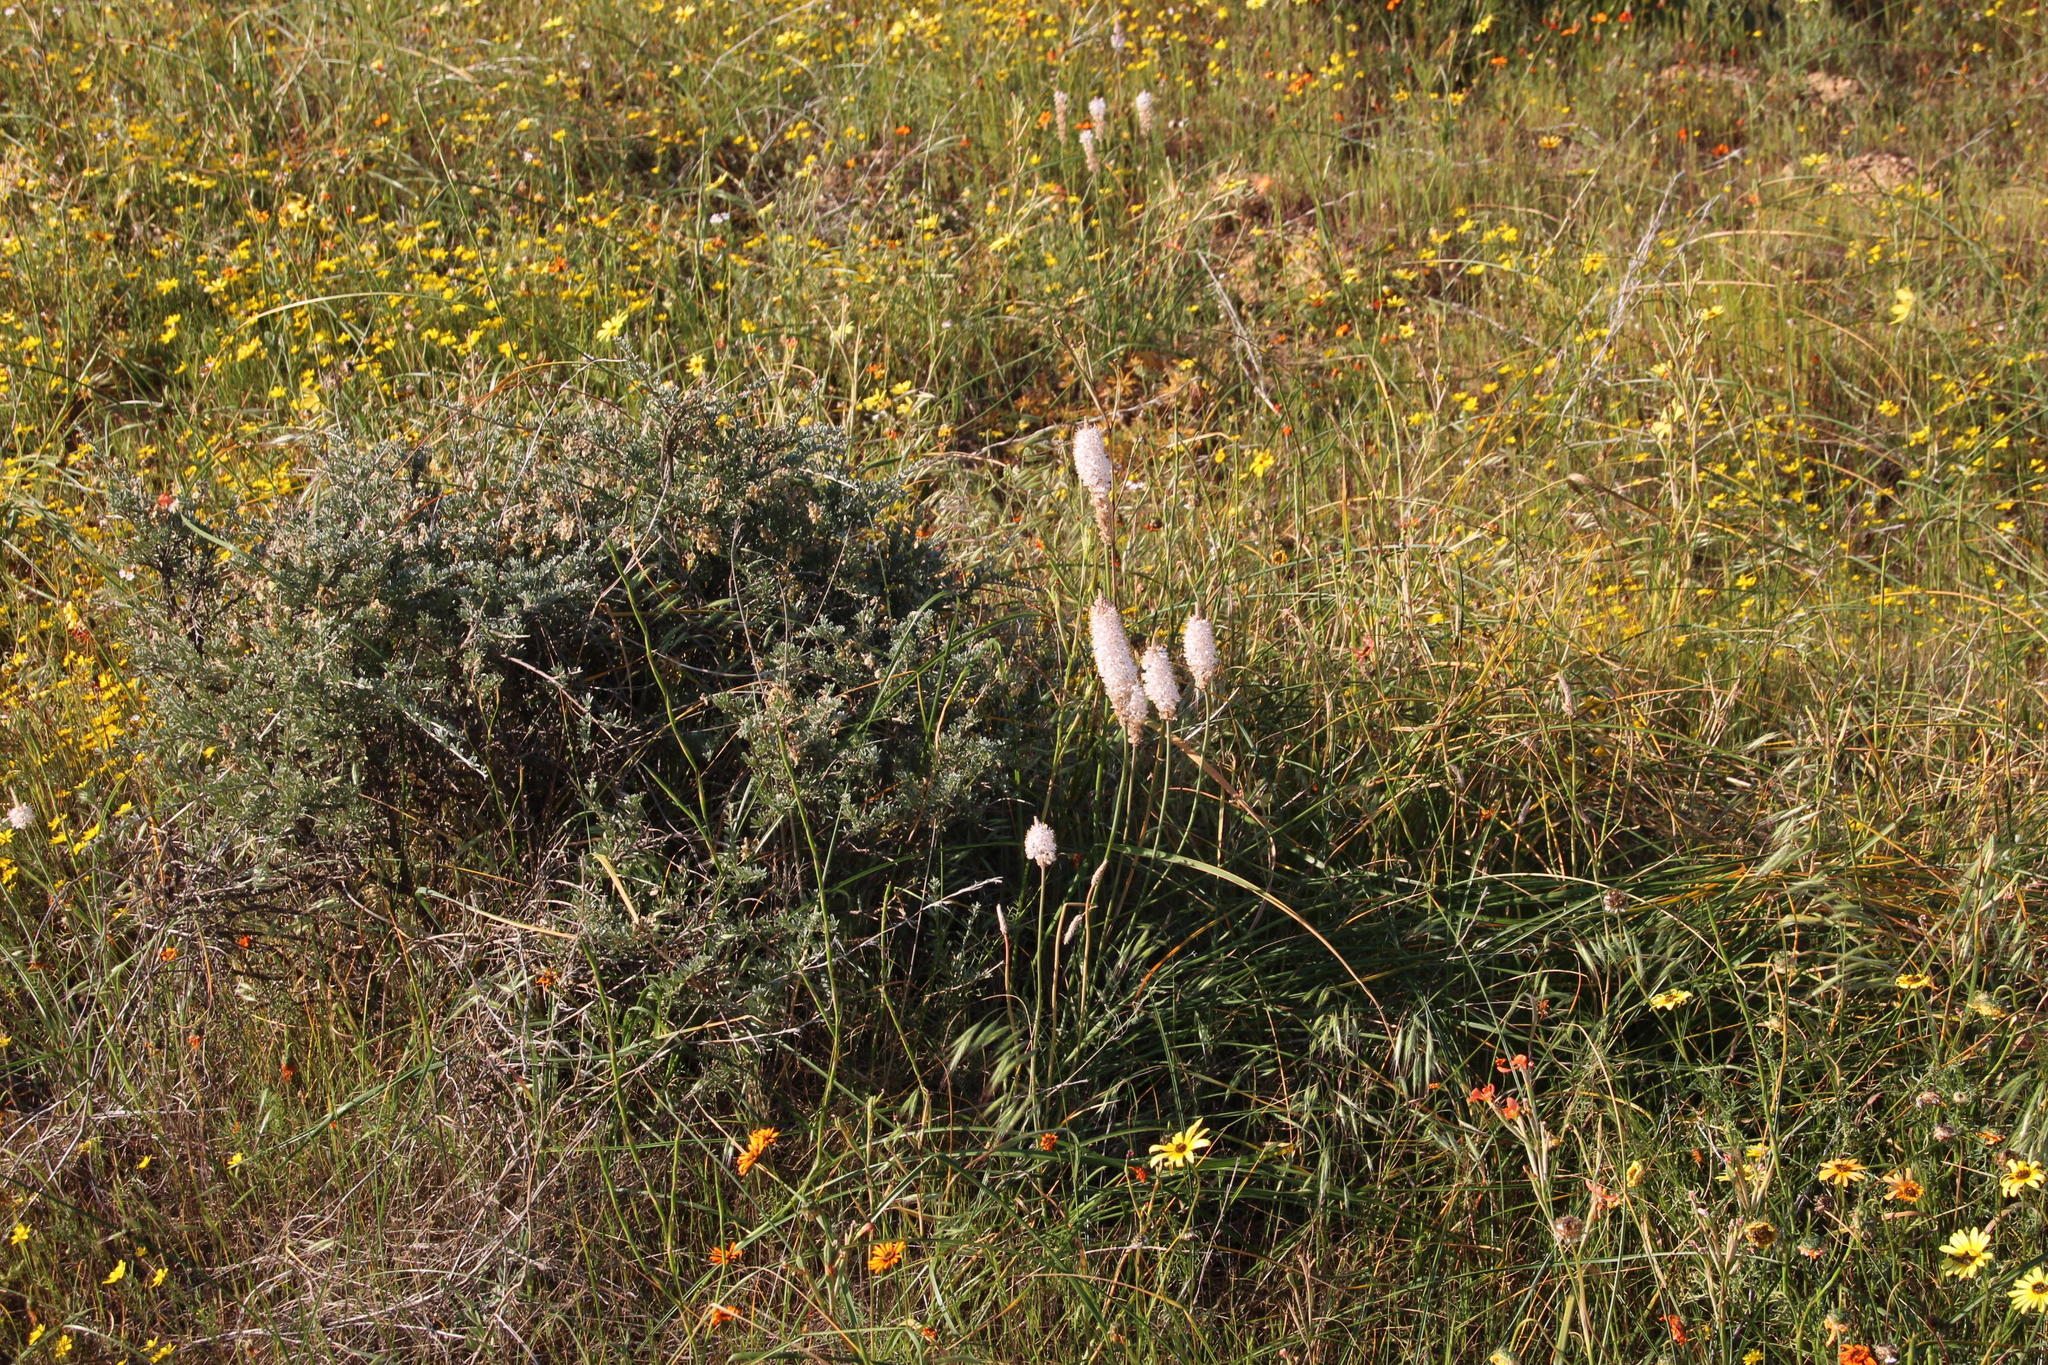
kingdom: Plantae
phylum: Tracheophyta
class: Liliopsida
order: Asparagales
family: Asphodelaceae
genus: Bulbinella
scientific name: Bulbinella cauda-felis
